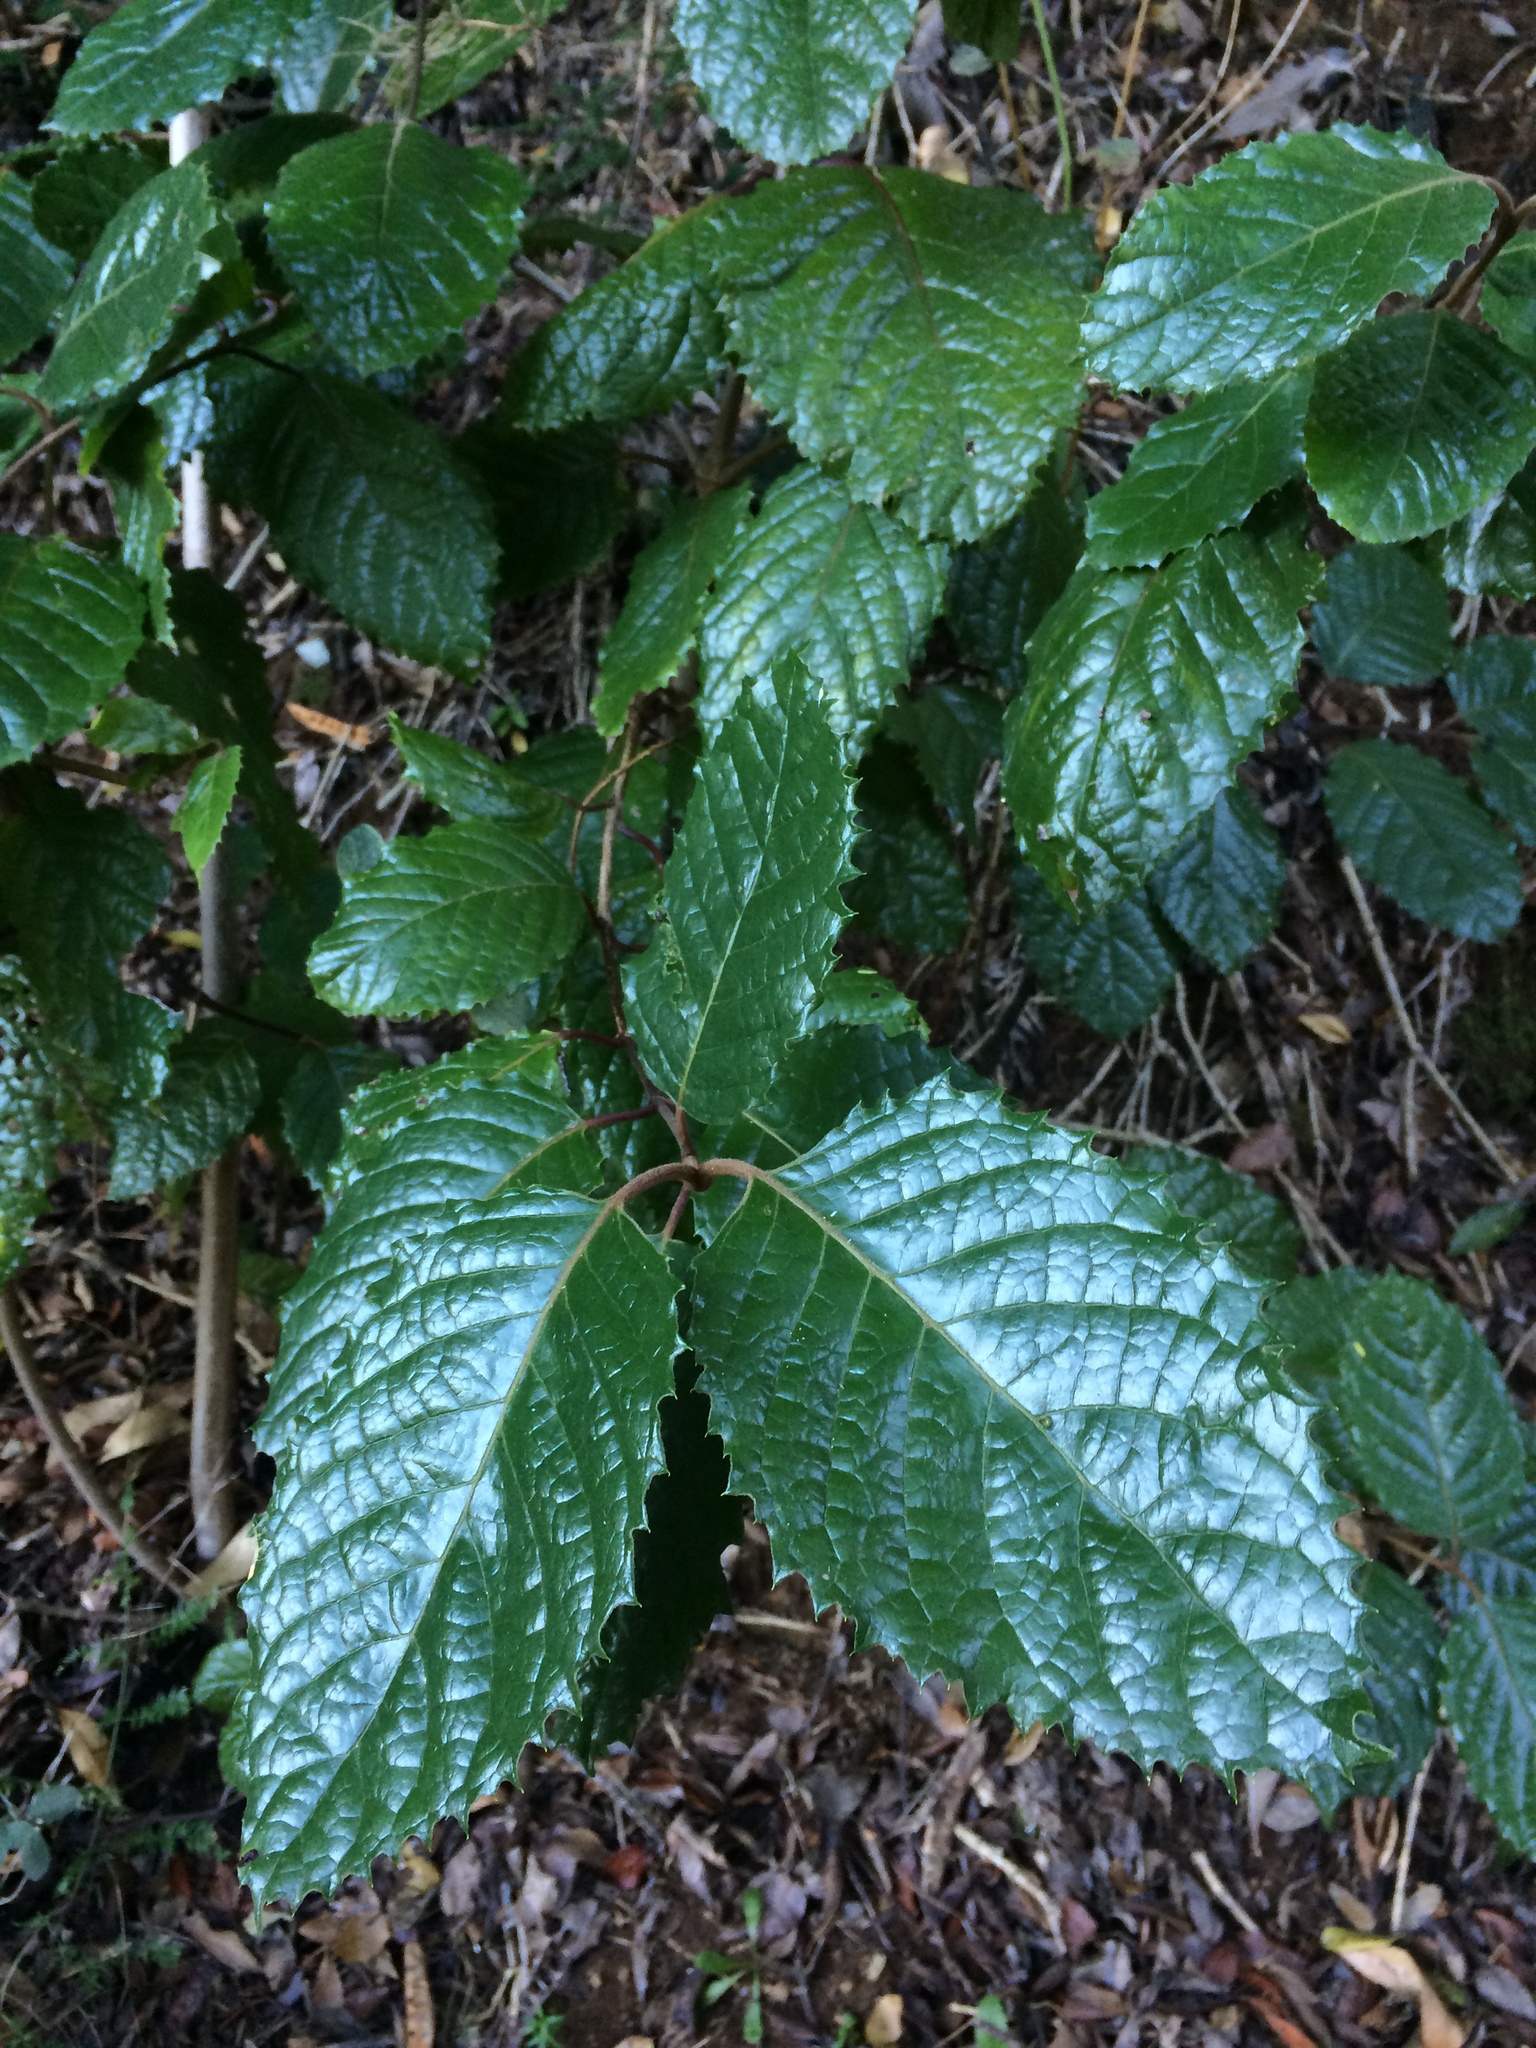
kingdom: Plantae
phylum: Tracheophyta
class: Magnoliopsida
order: Cornales
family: Curtisiaceae
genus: Curtisia
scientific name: Curtisia dentata
